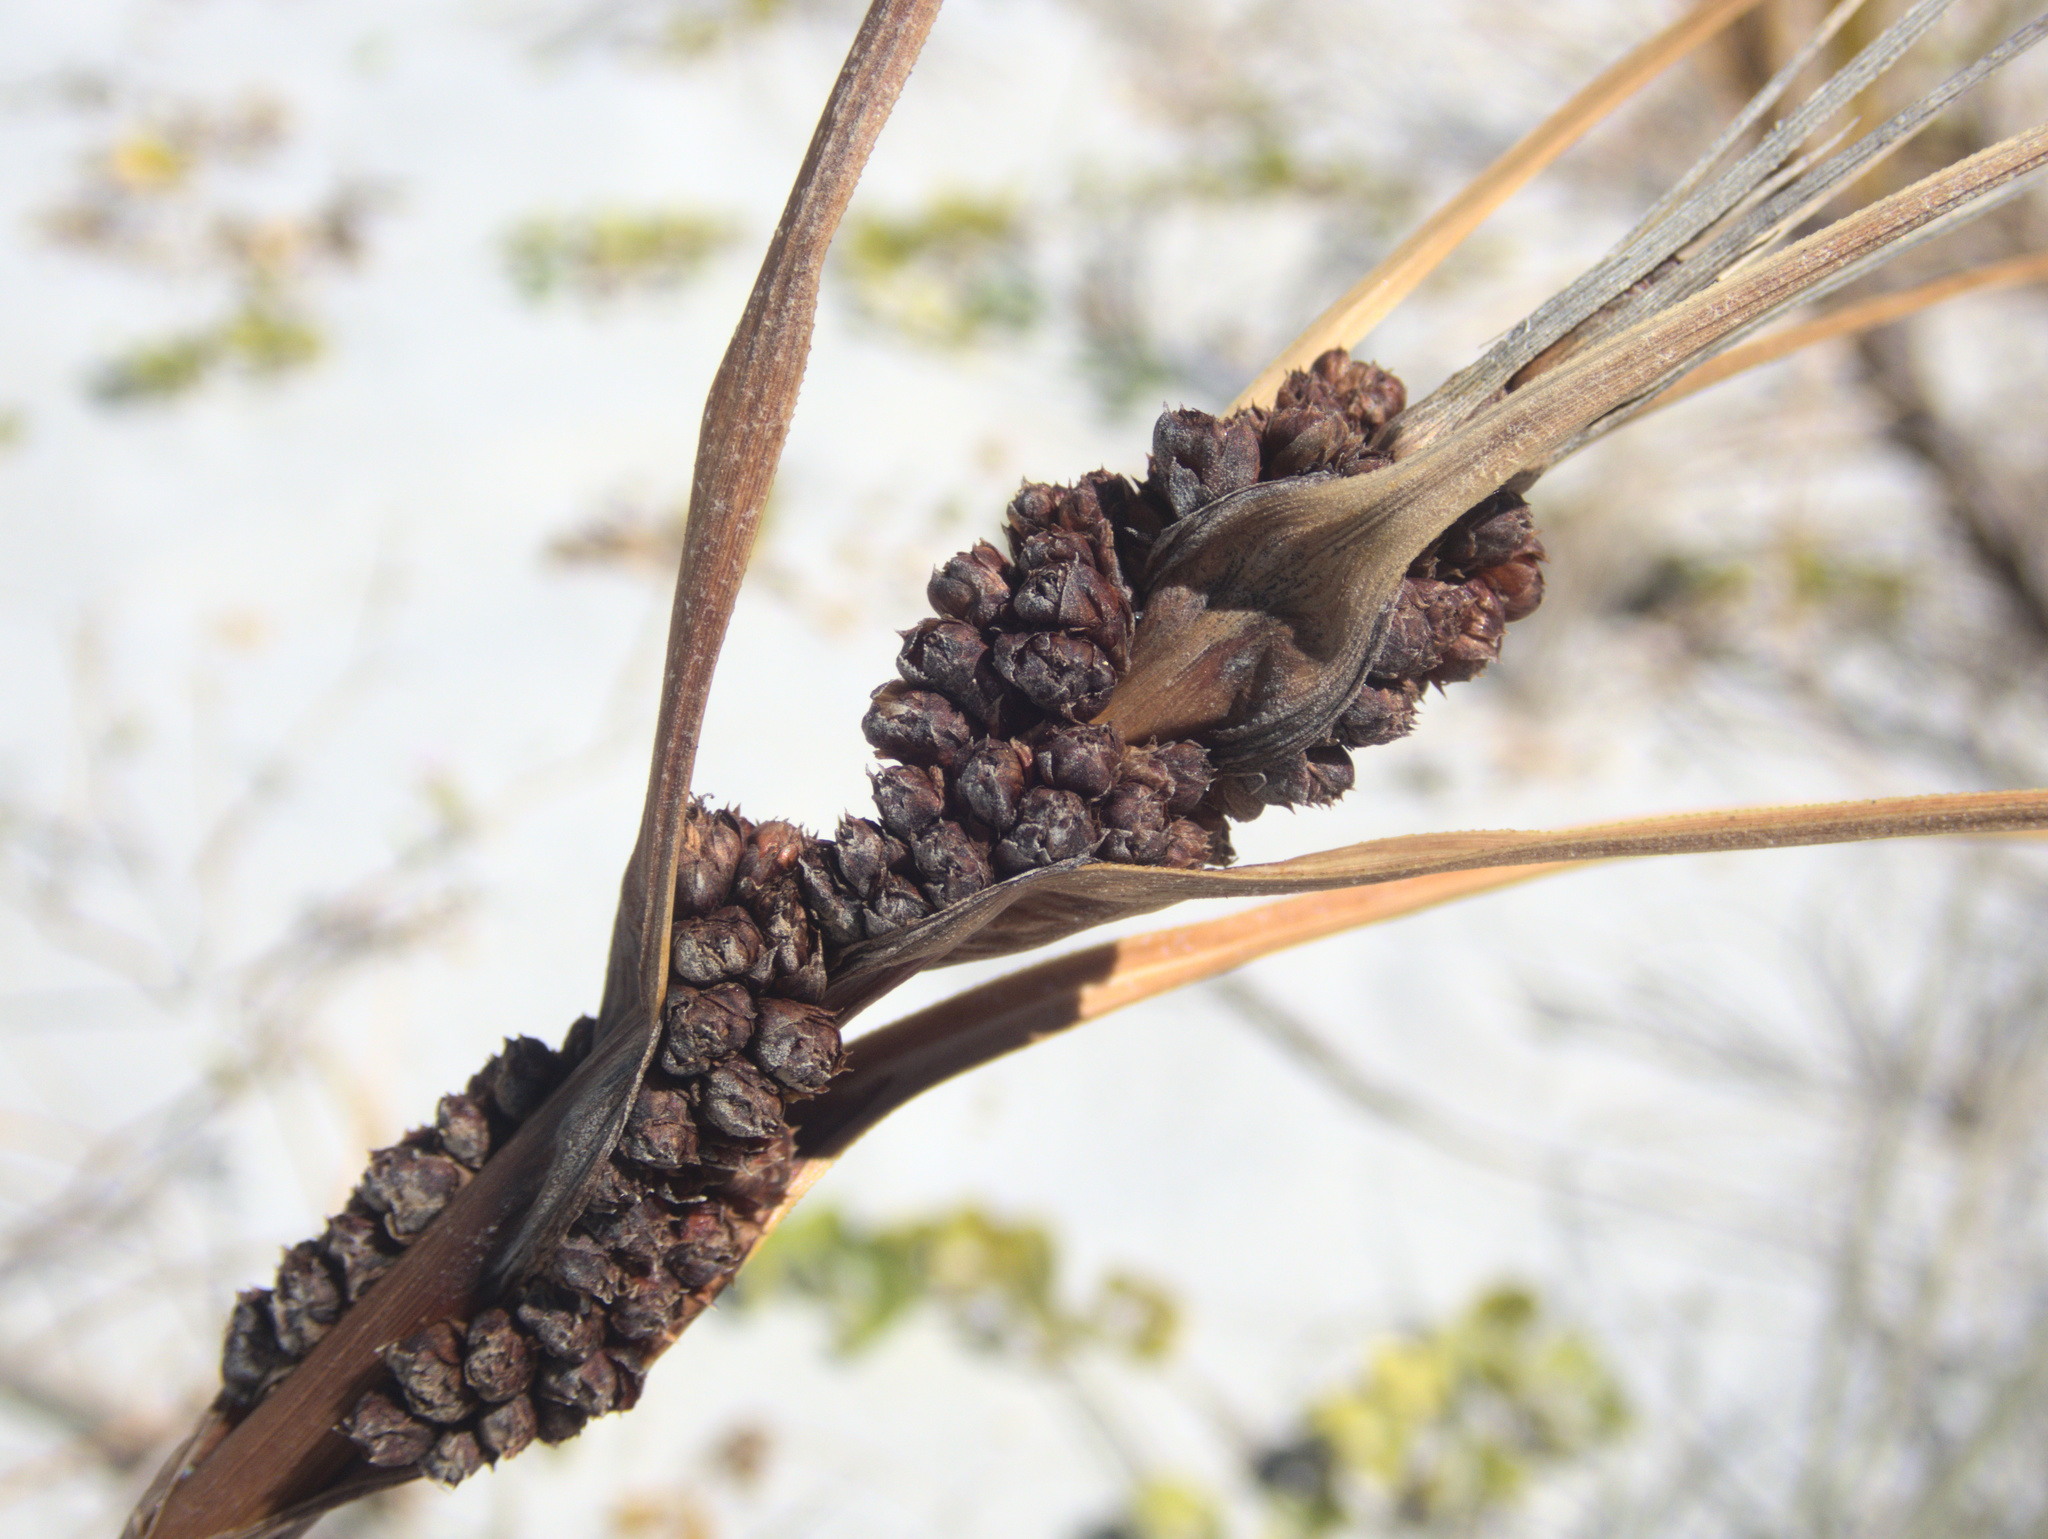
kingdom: Plantae
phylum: Tracheophyta
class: Liliopsida
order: Poales
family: Cyperaceae
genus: Ficinia
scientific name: Ficinia spiralis
